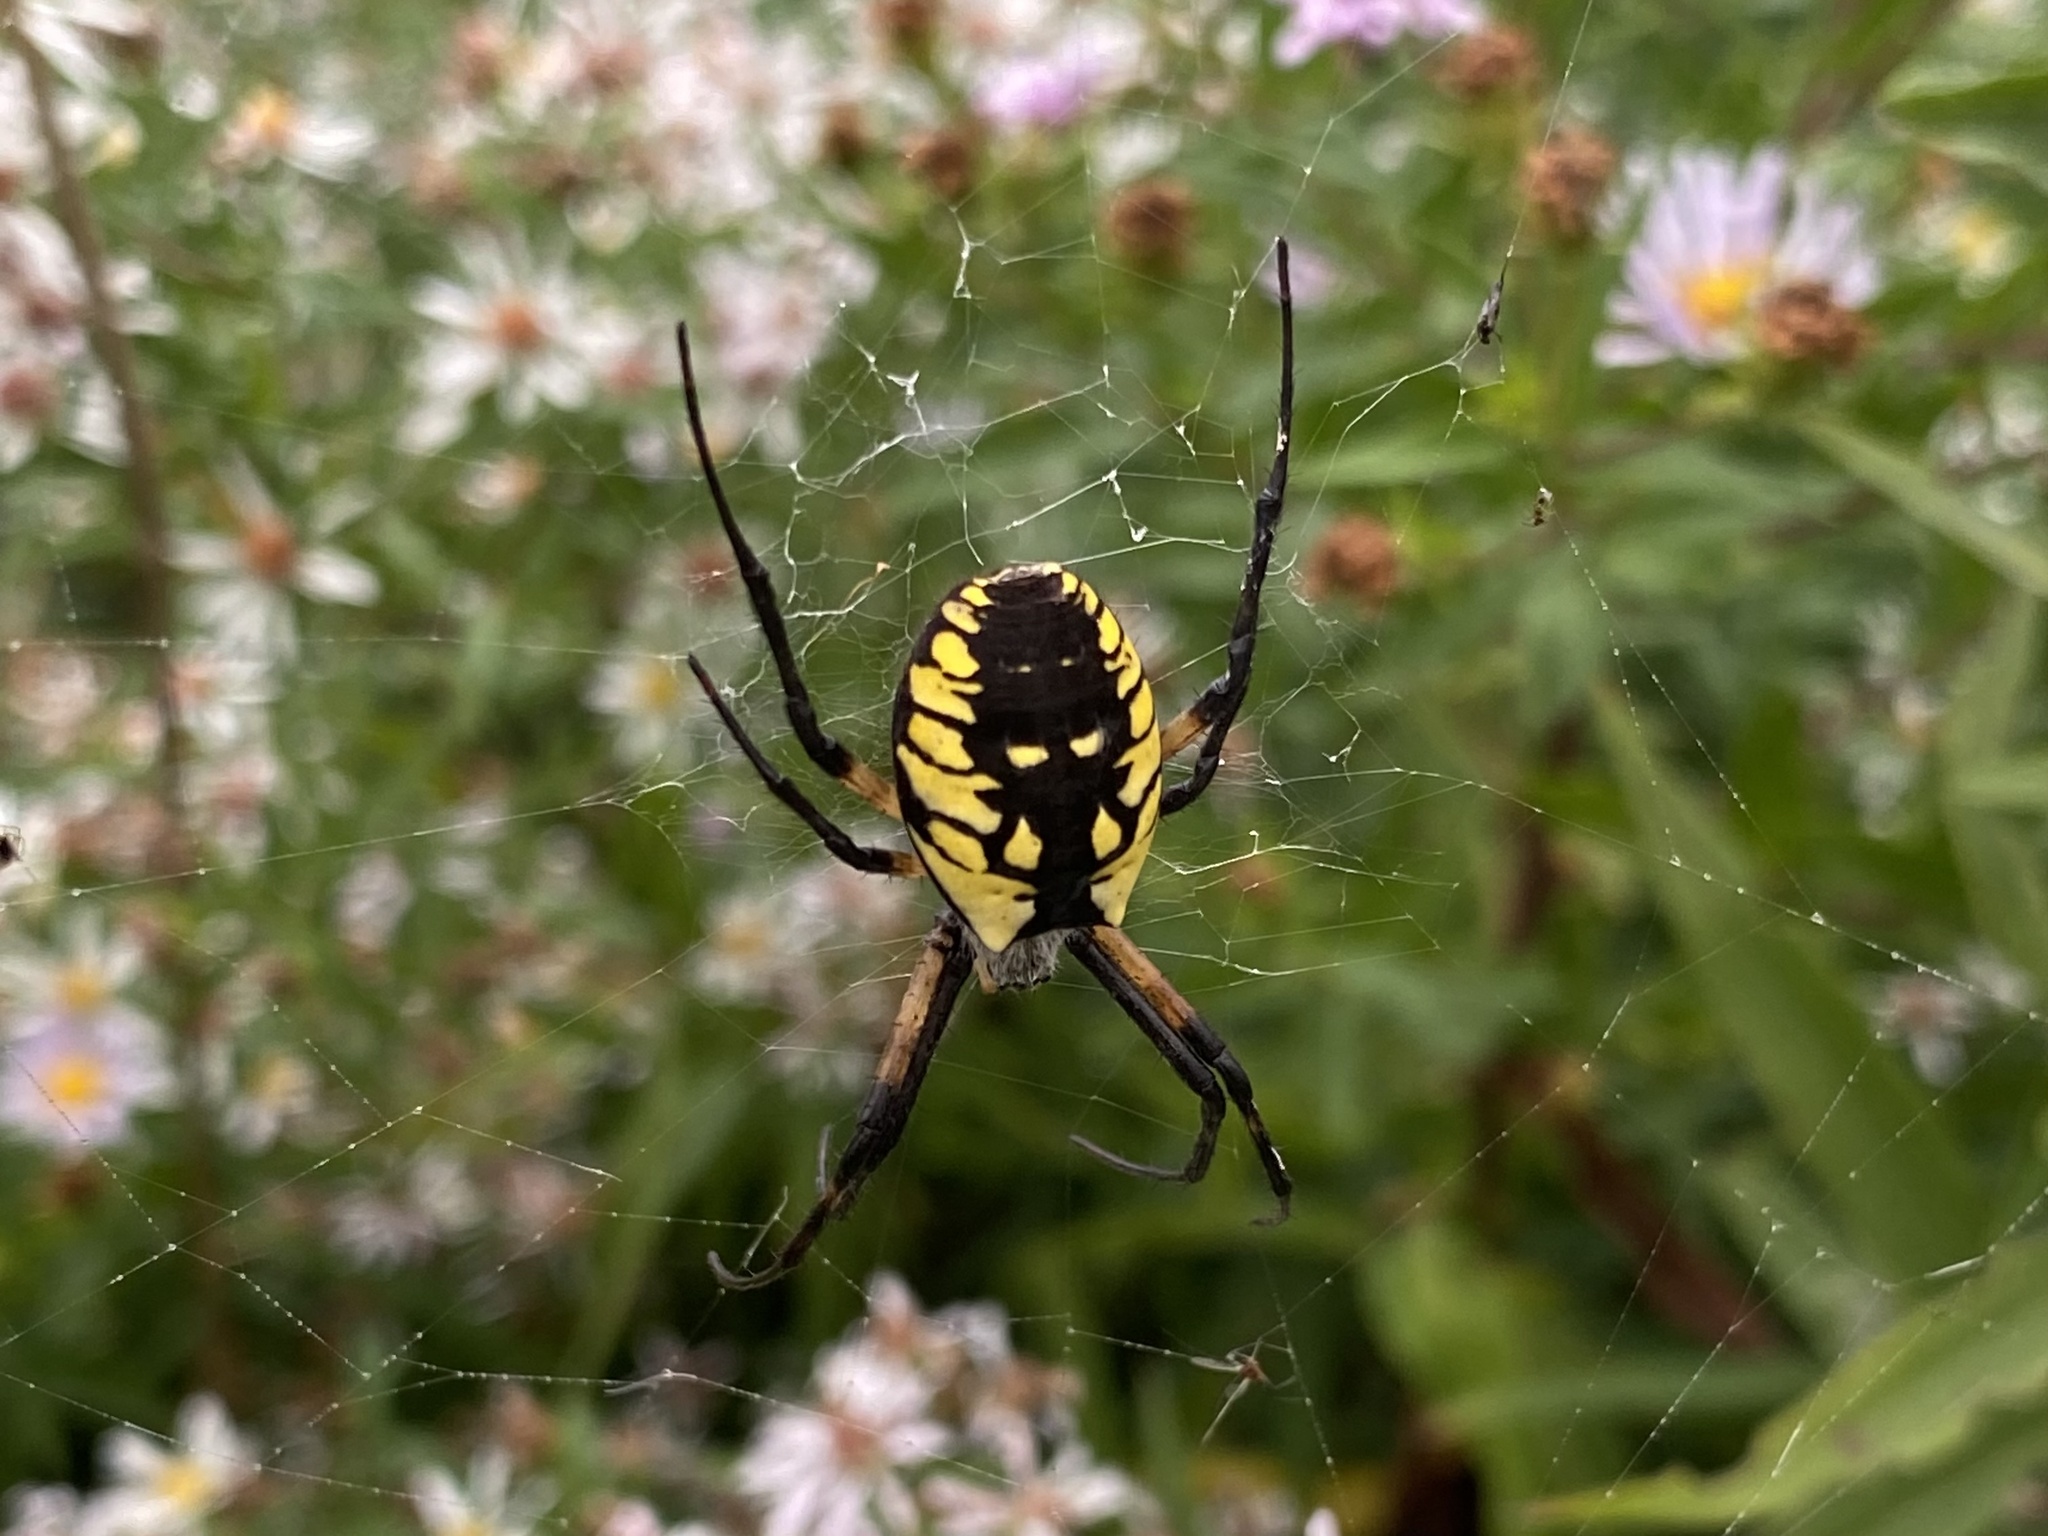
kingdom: Animalia
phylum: Arthropoda
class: Arachnida
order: Araneae
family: Araneidae
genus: Argiope
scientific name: Argiope aurantia
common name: Orb weavers
